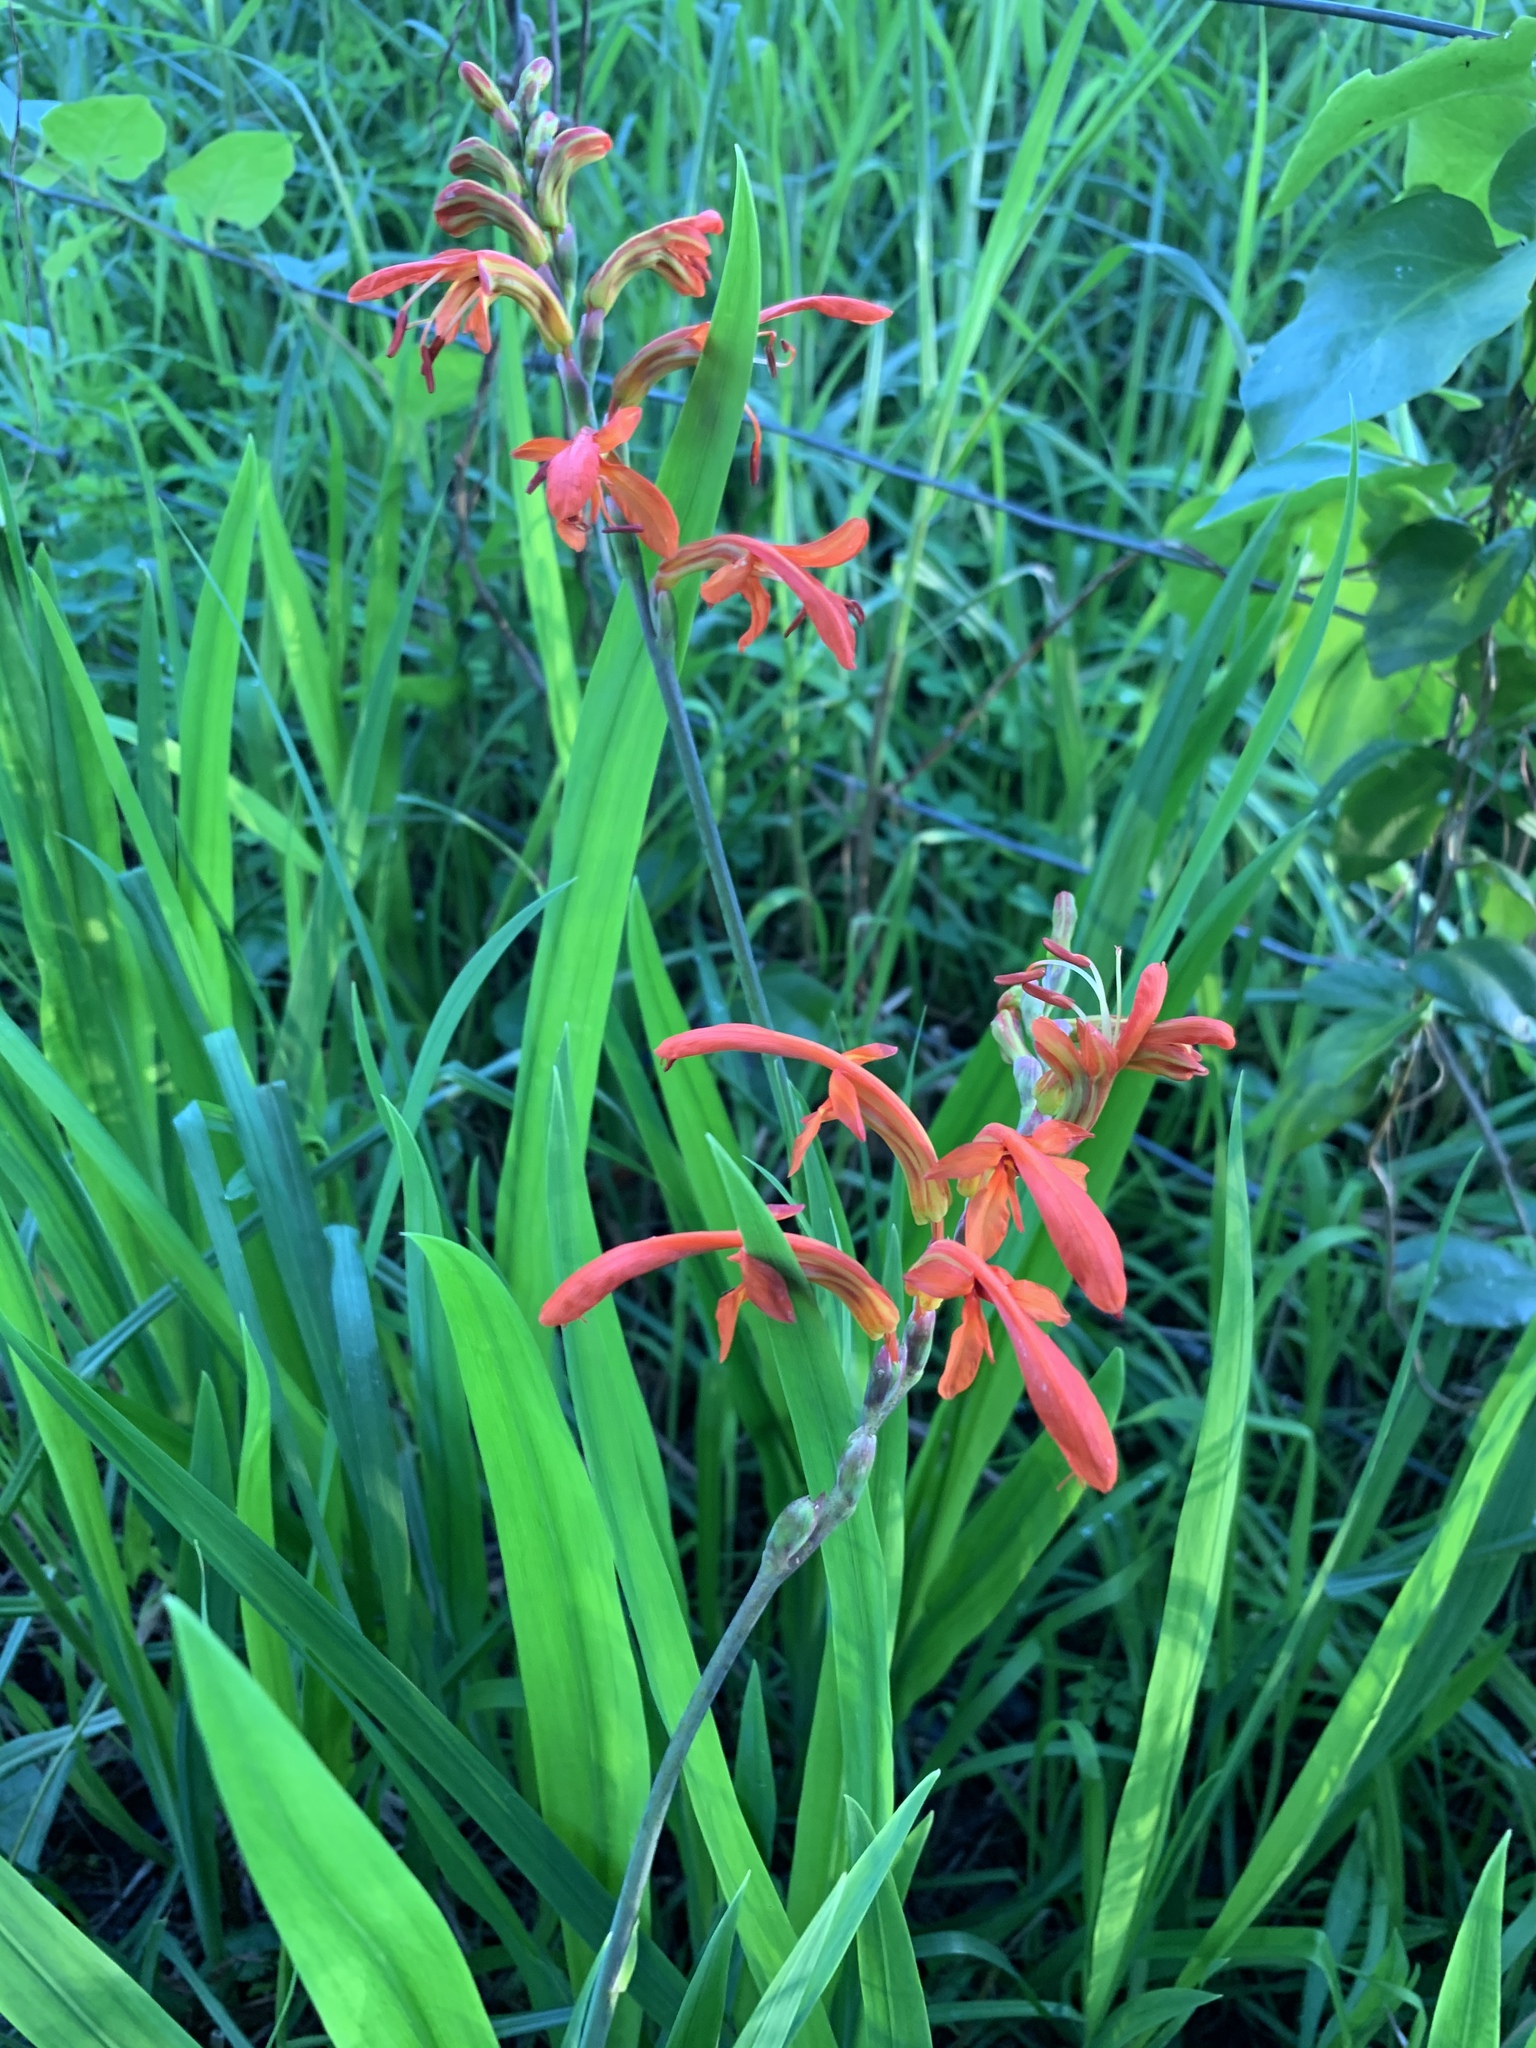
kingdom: Plantae
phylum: Tracheophyta
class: Liliopsida
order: Asparagales
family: Iridaceae
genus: Chasmanthe
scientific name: Chasmanthe aethiopica
